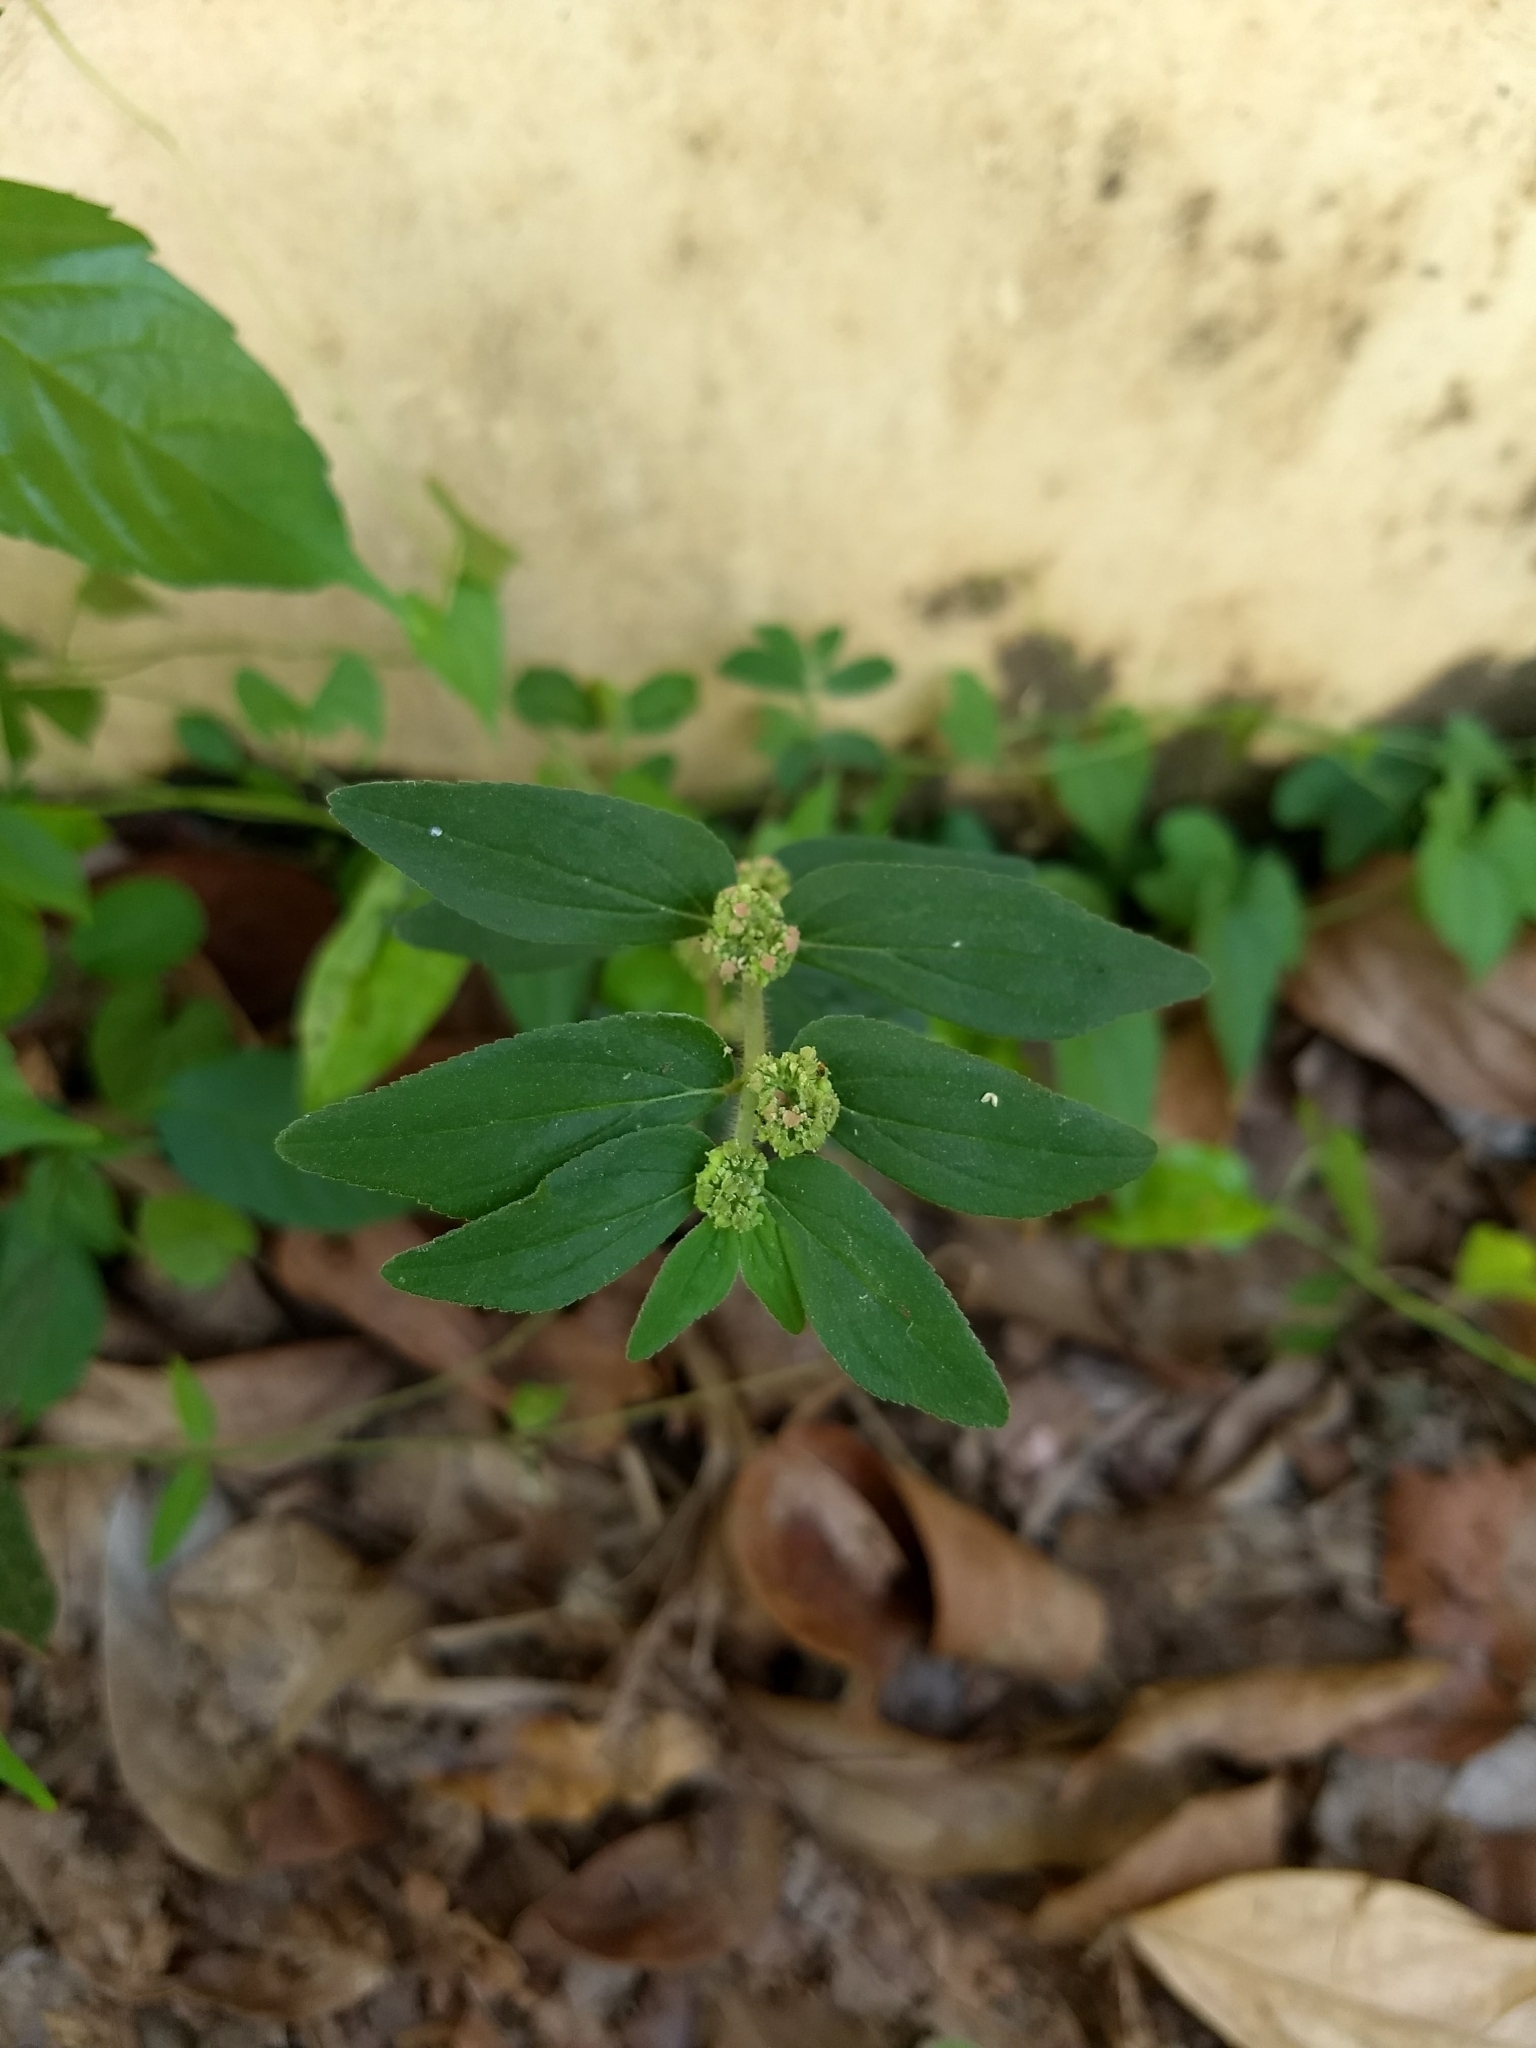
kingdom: Plantae
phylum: Tracheophyta
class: Magnoliopsida
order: Malpighiales
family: Euphorbiaceae
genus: Euphorbia
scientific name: Euphorbia hirta
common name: Pillpod sandmat
